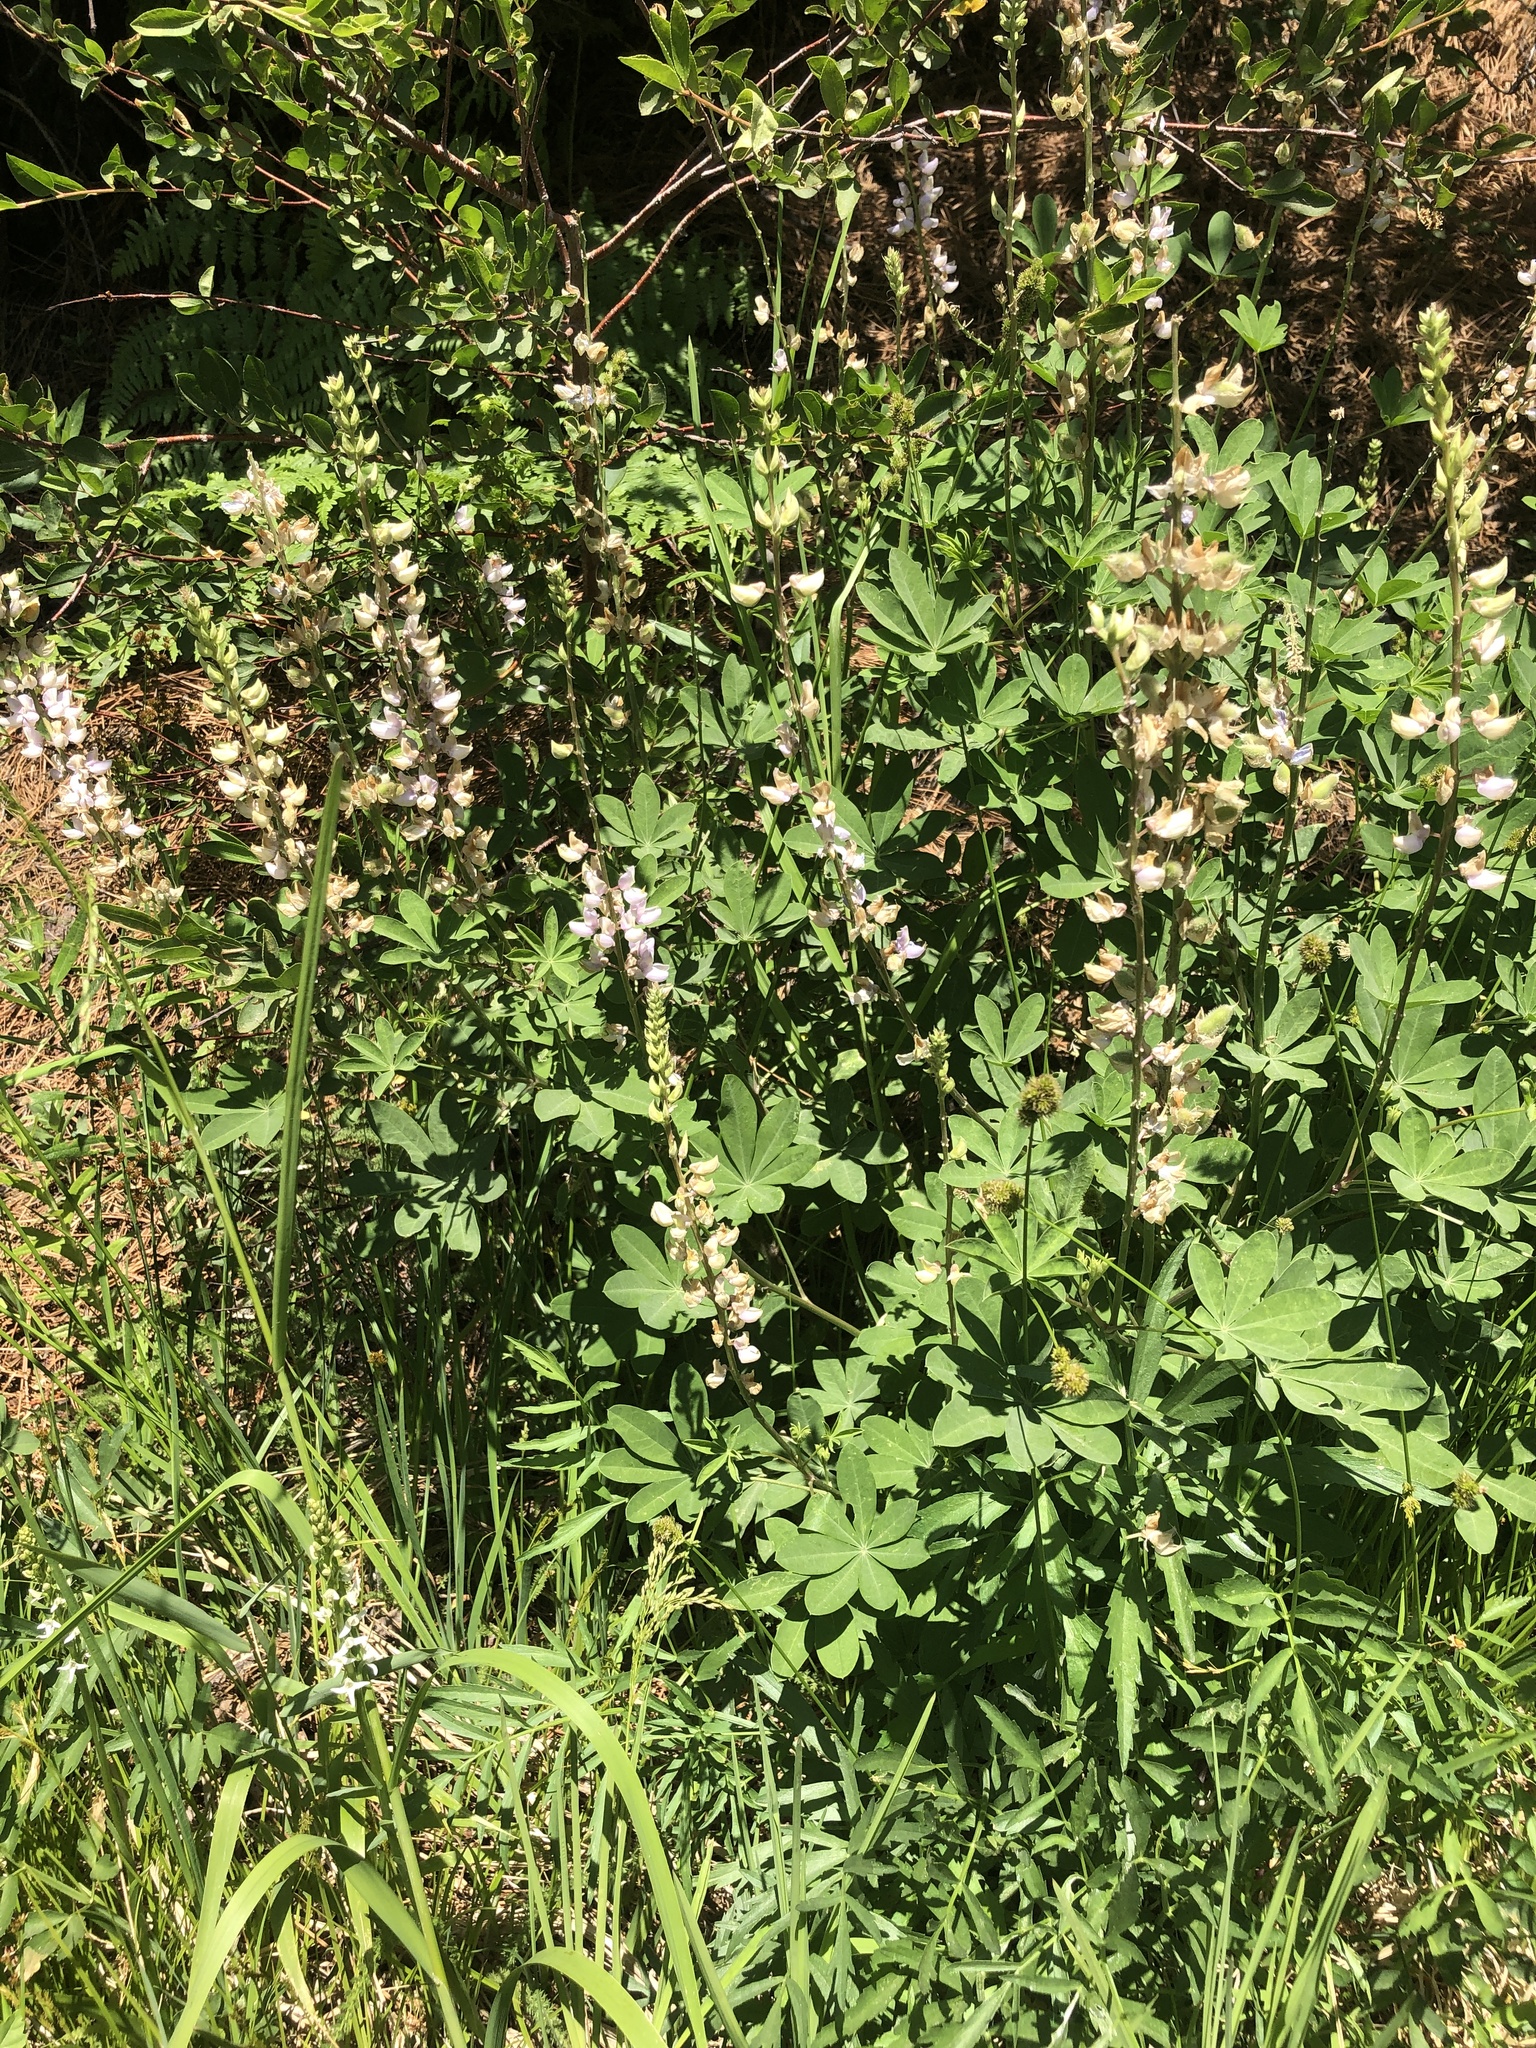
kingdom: Plantae
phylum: Tracheophyta
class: Liliopsida
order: Asparagales
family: Orchidaceae
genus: Platanthera
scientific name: Platanthera dilatata
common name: Bog candles
